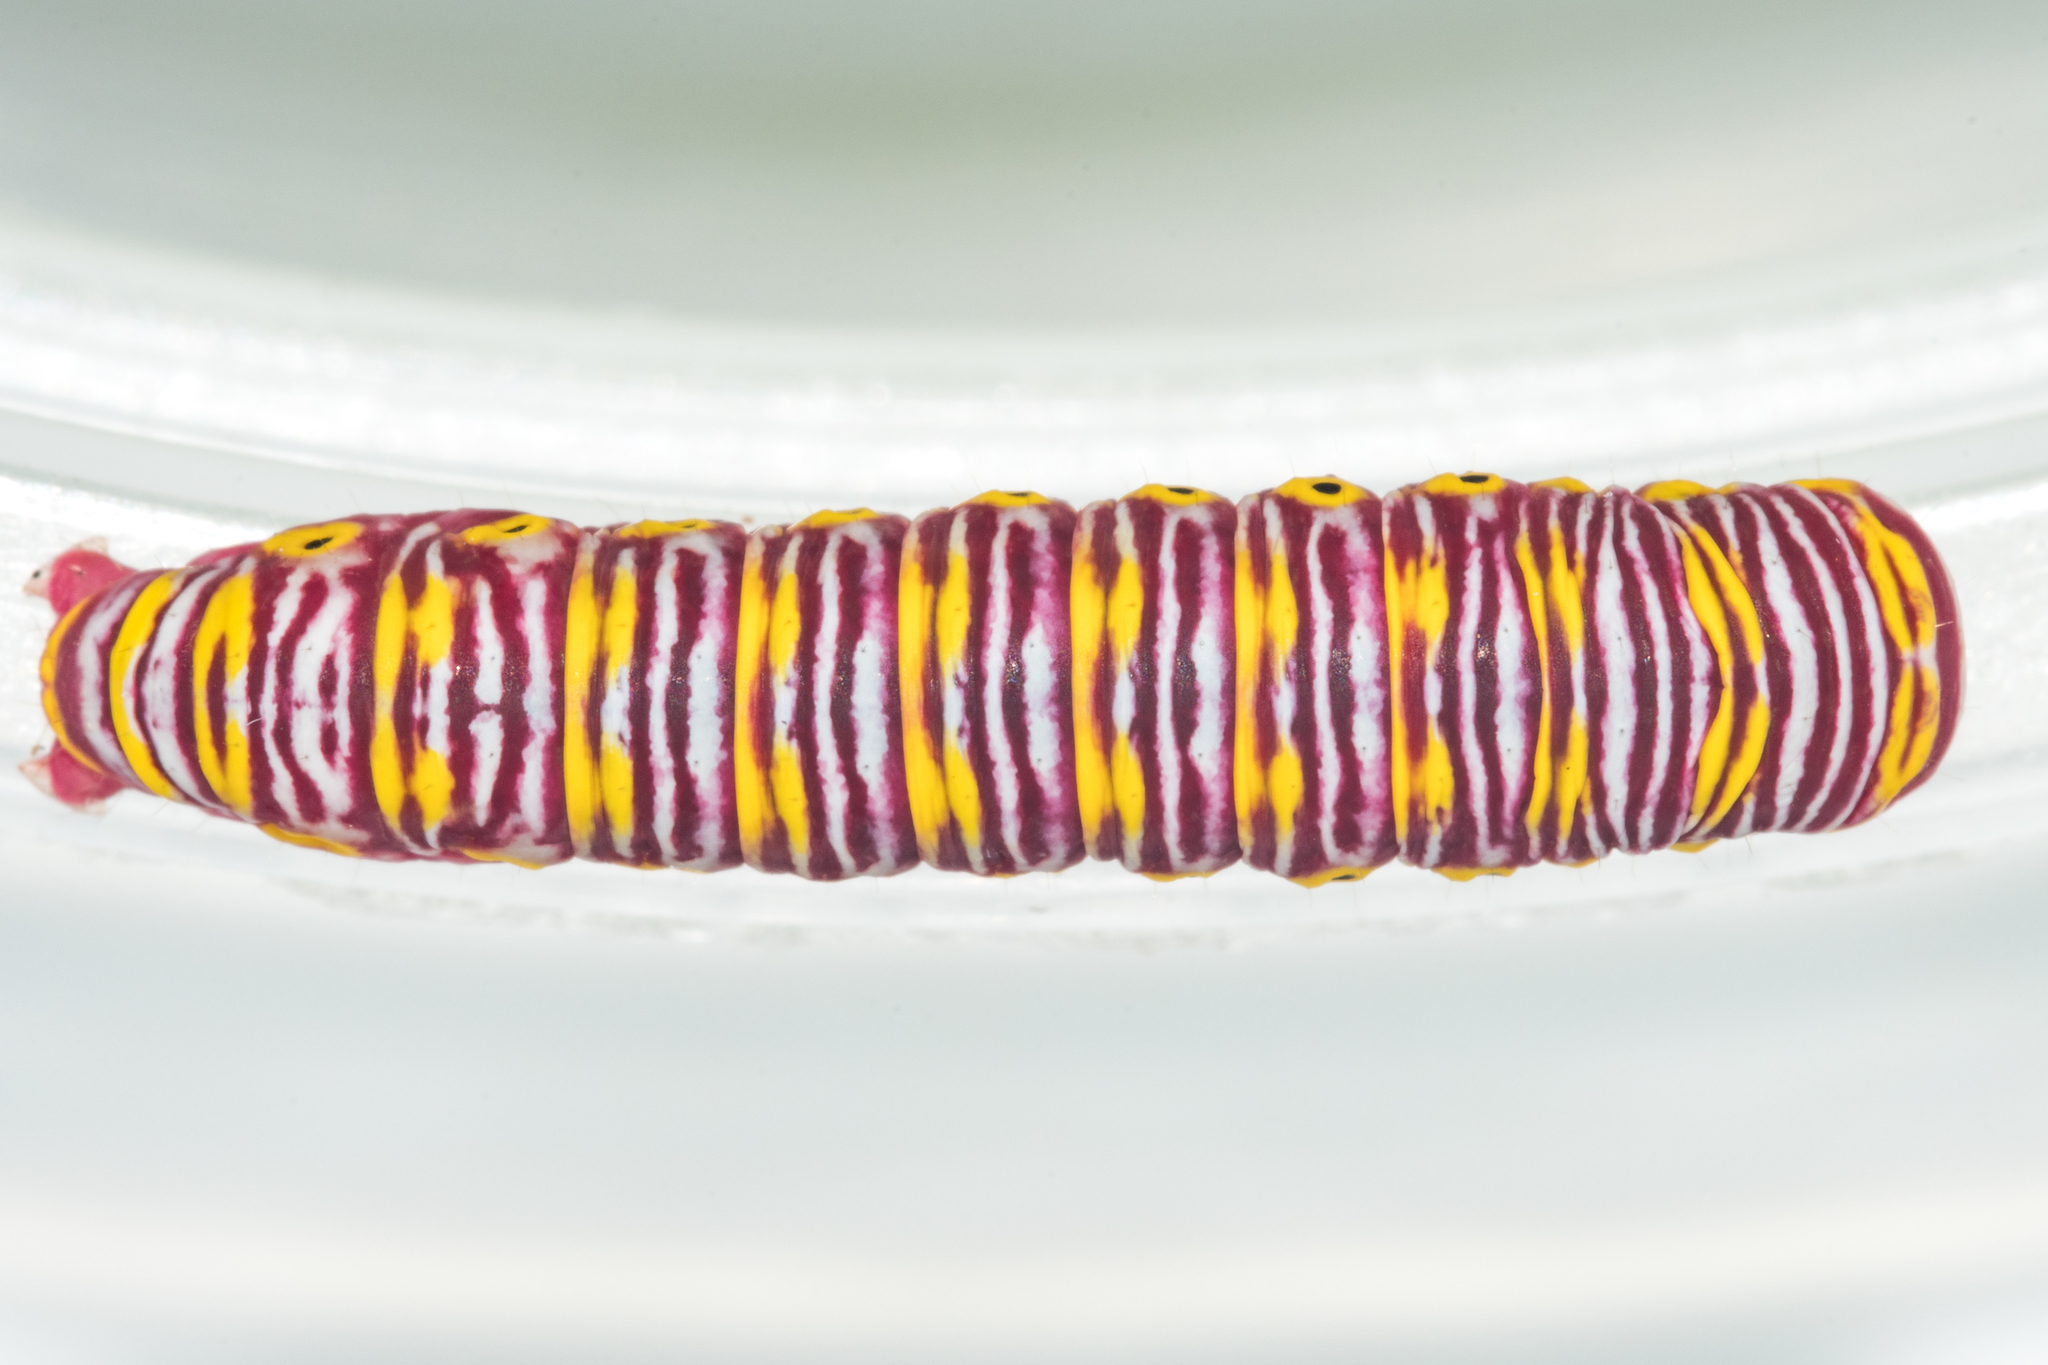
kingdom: Animalia
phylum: Arthropoda
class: Insecta
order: Lepidoptera
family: Euteliidae
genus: Eutelia
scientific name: Eutelia catephioides
